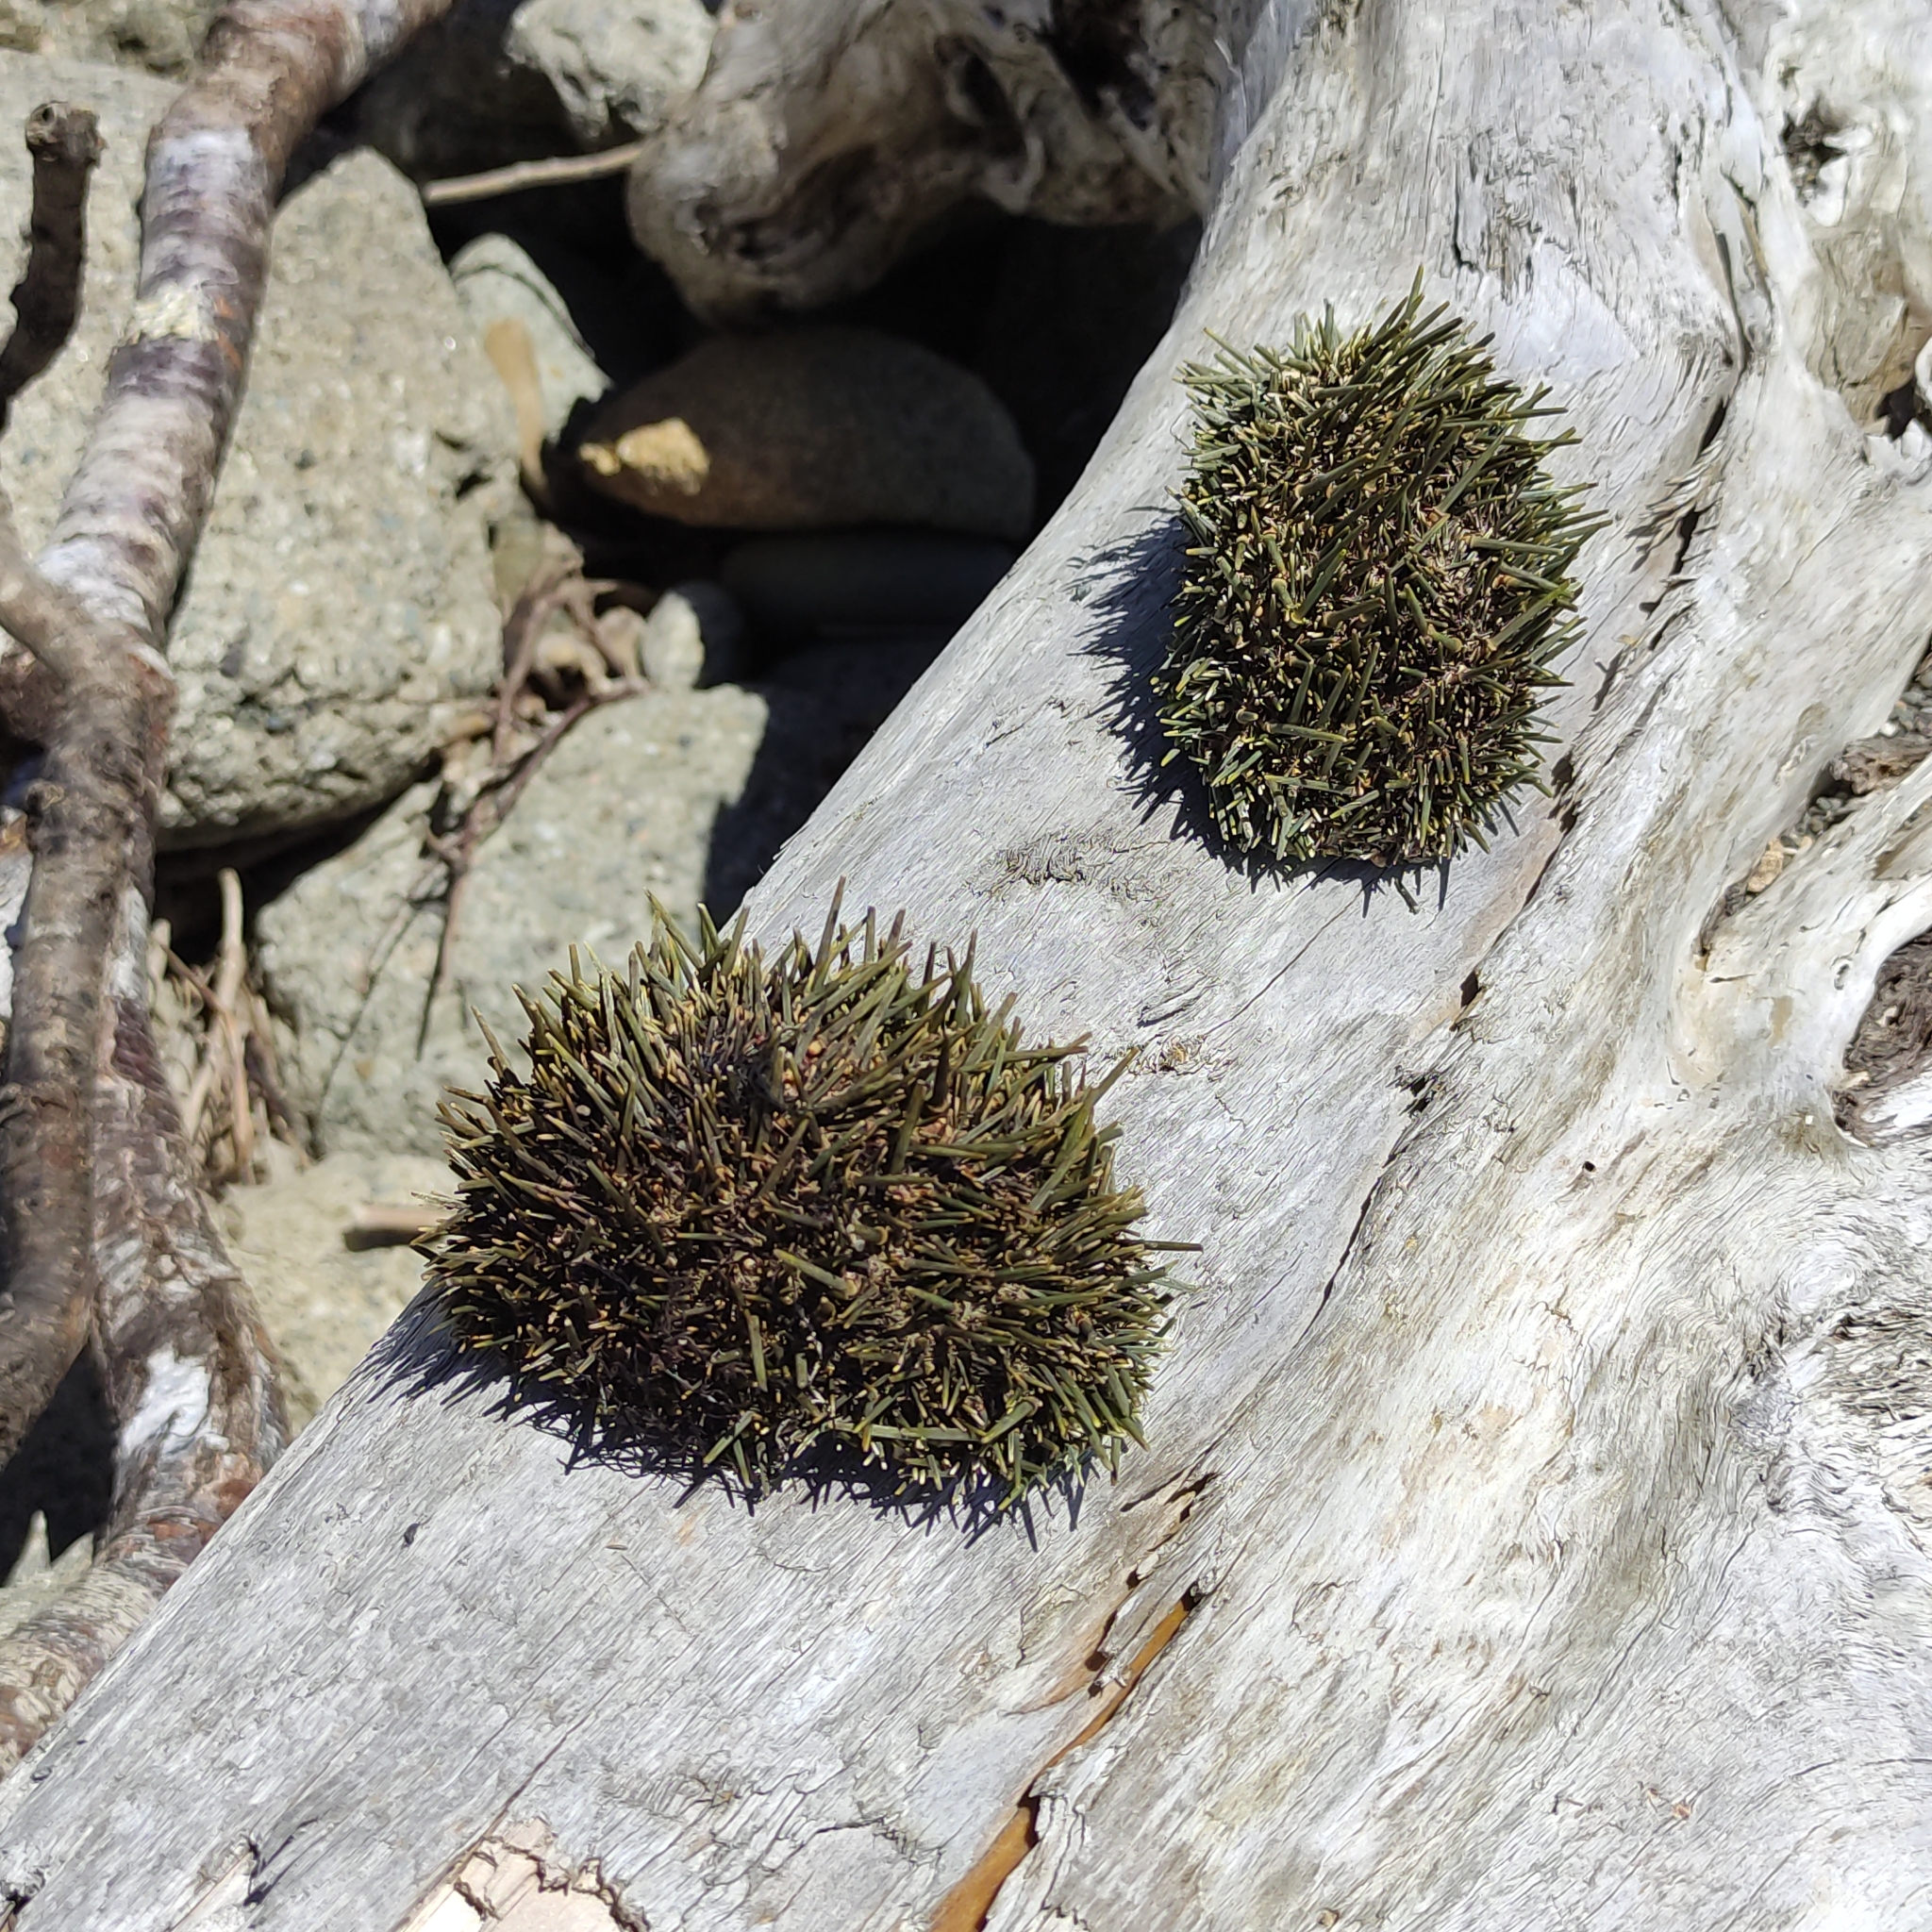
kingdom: Animalia
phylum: Echinodermata
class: Echinoidea
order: Camarodonta
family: Echinometridae
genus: Evechinus
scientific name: Evechinus chloroticus
